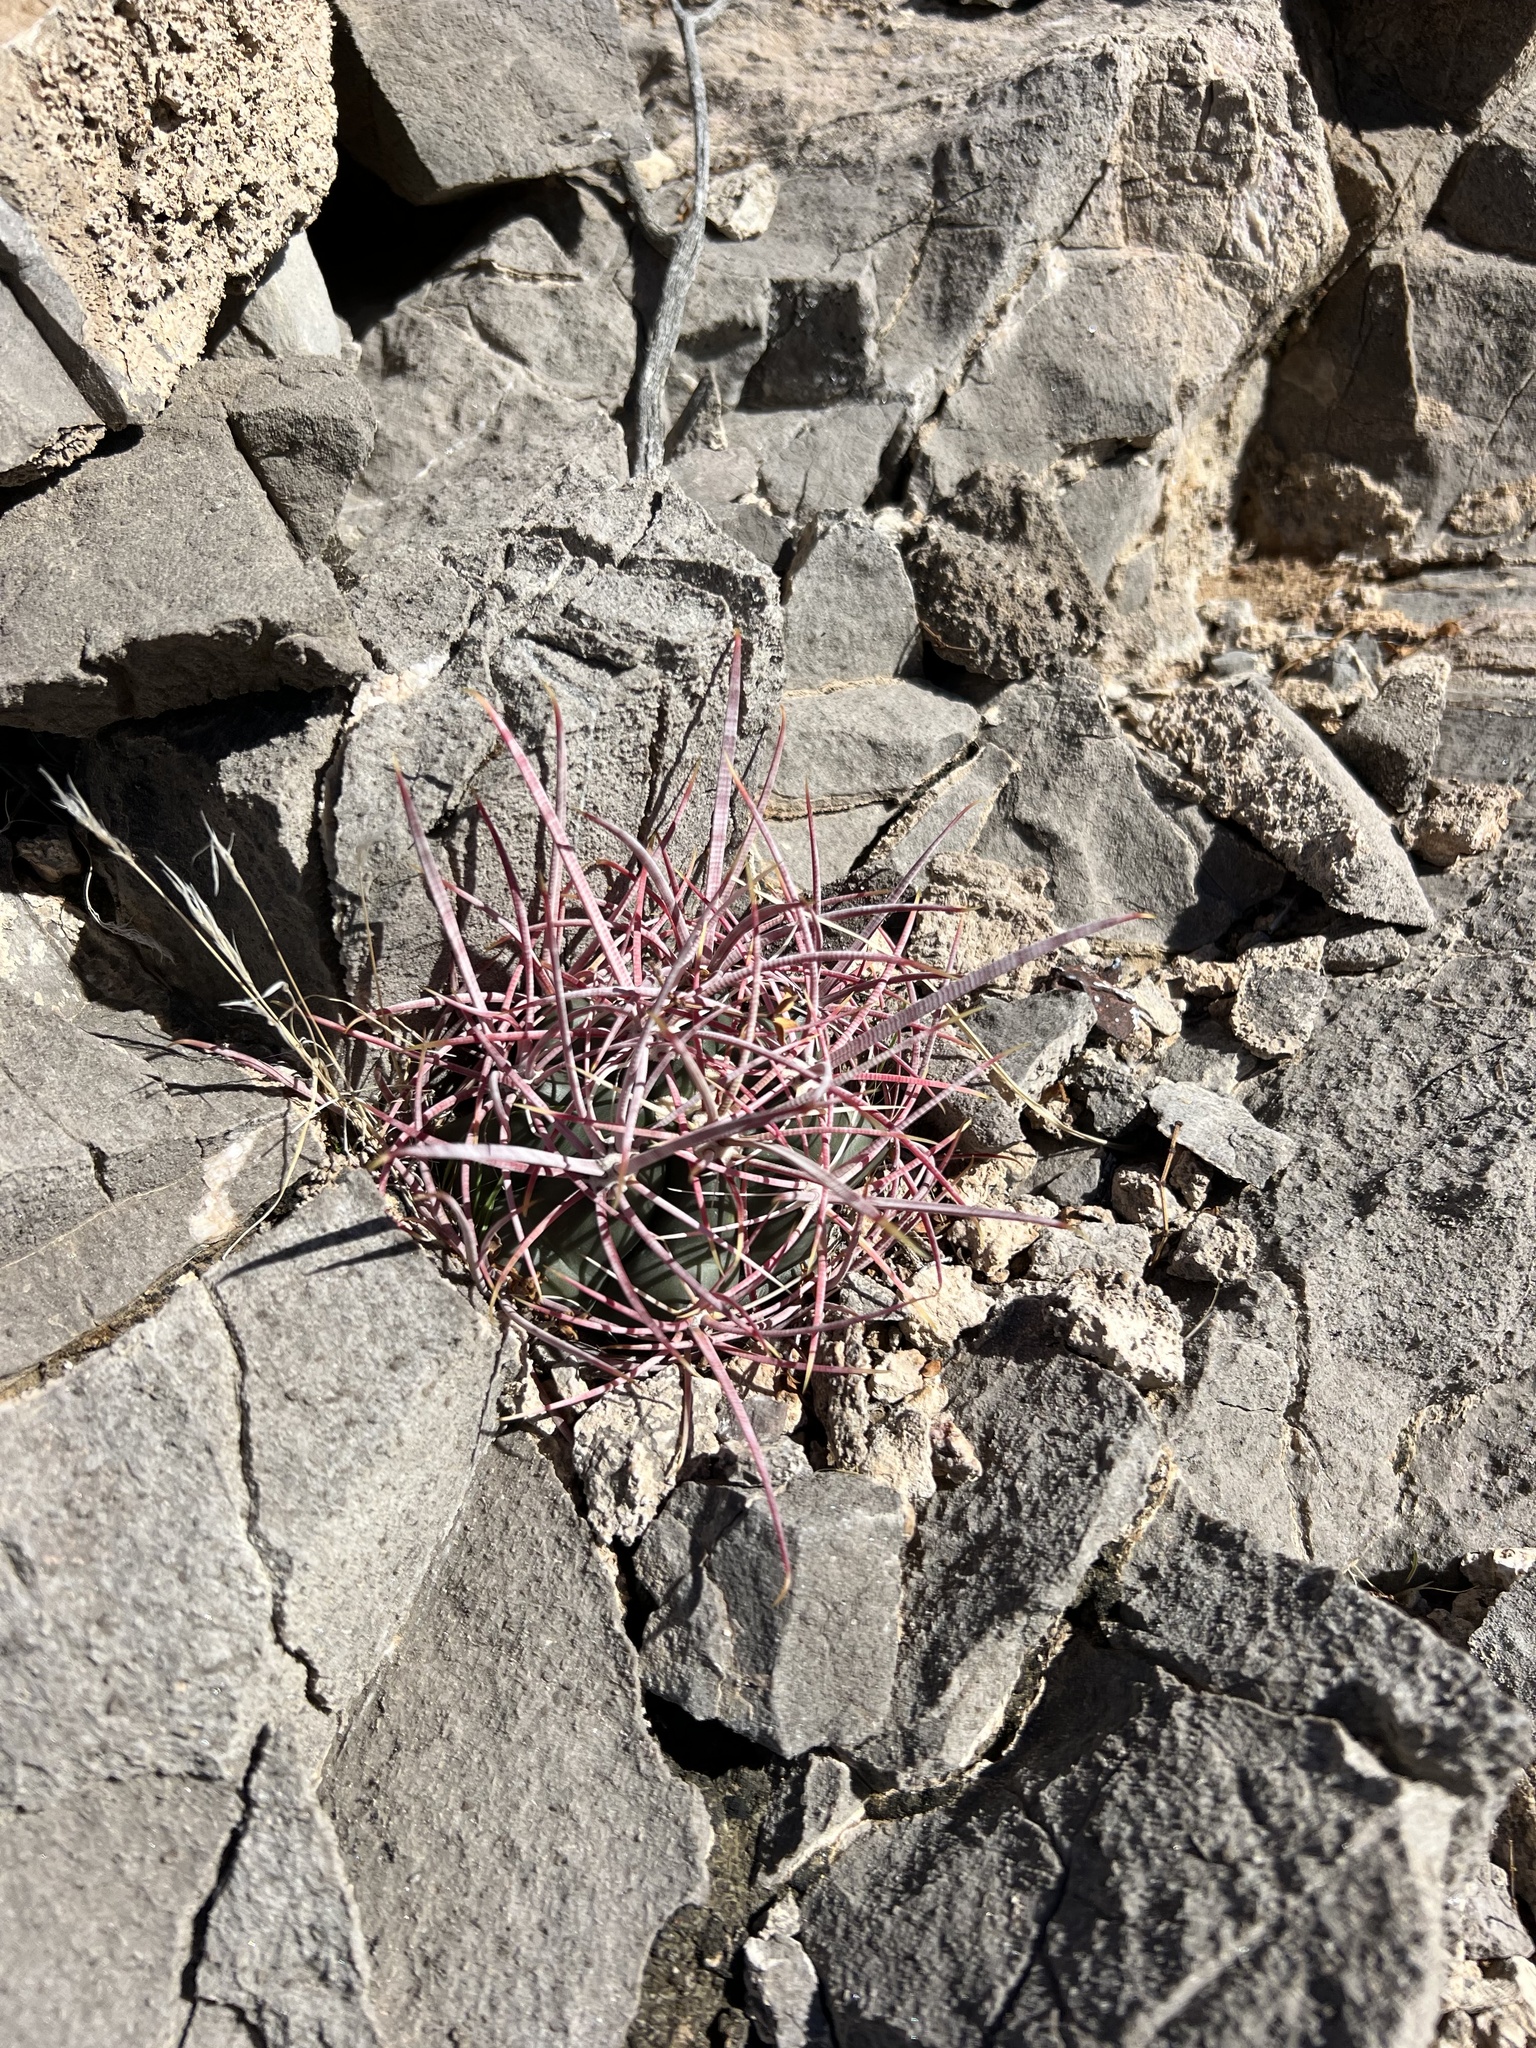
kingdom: Plantae
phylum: Tracheophyta
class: Magnoliopsida
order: Caryophyllales
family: Cactaceae
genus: Ferocactus
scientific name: Ferocactus cylindraceus
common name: California barrel cactus
